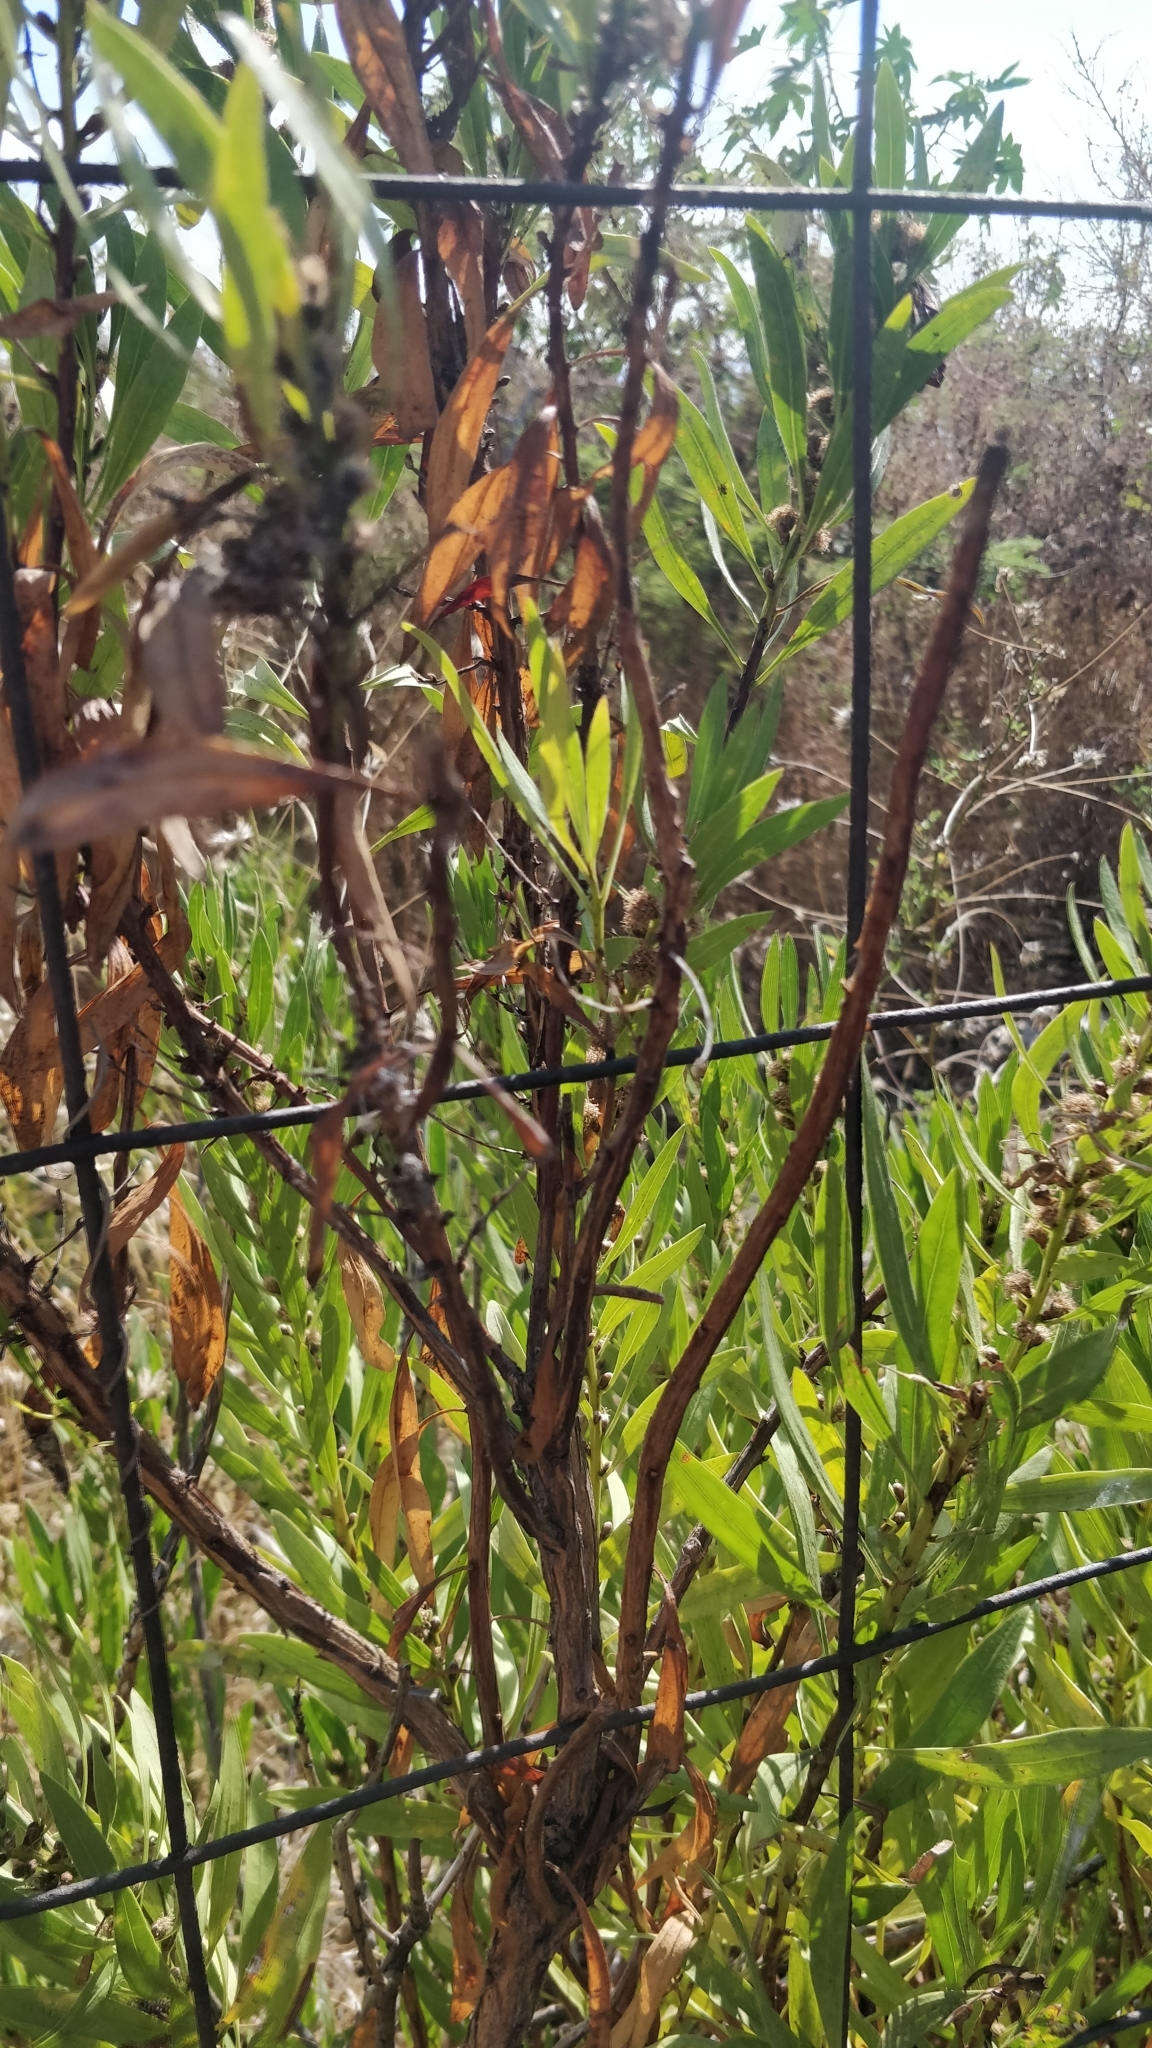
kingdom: Plantae
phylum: Tracheophyta
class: Magnoliopsida
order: Lamiales
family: Plantaginaceae
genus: Globularia
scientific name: Globularia salicina
